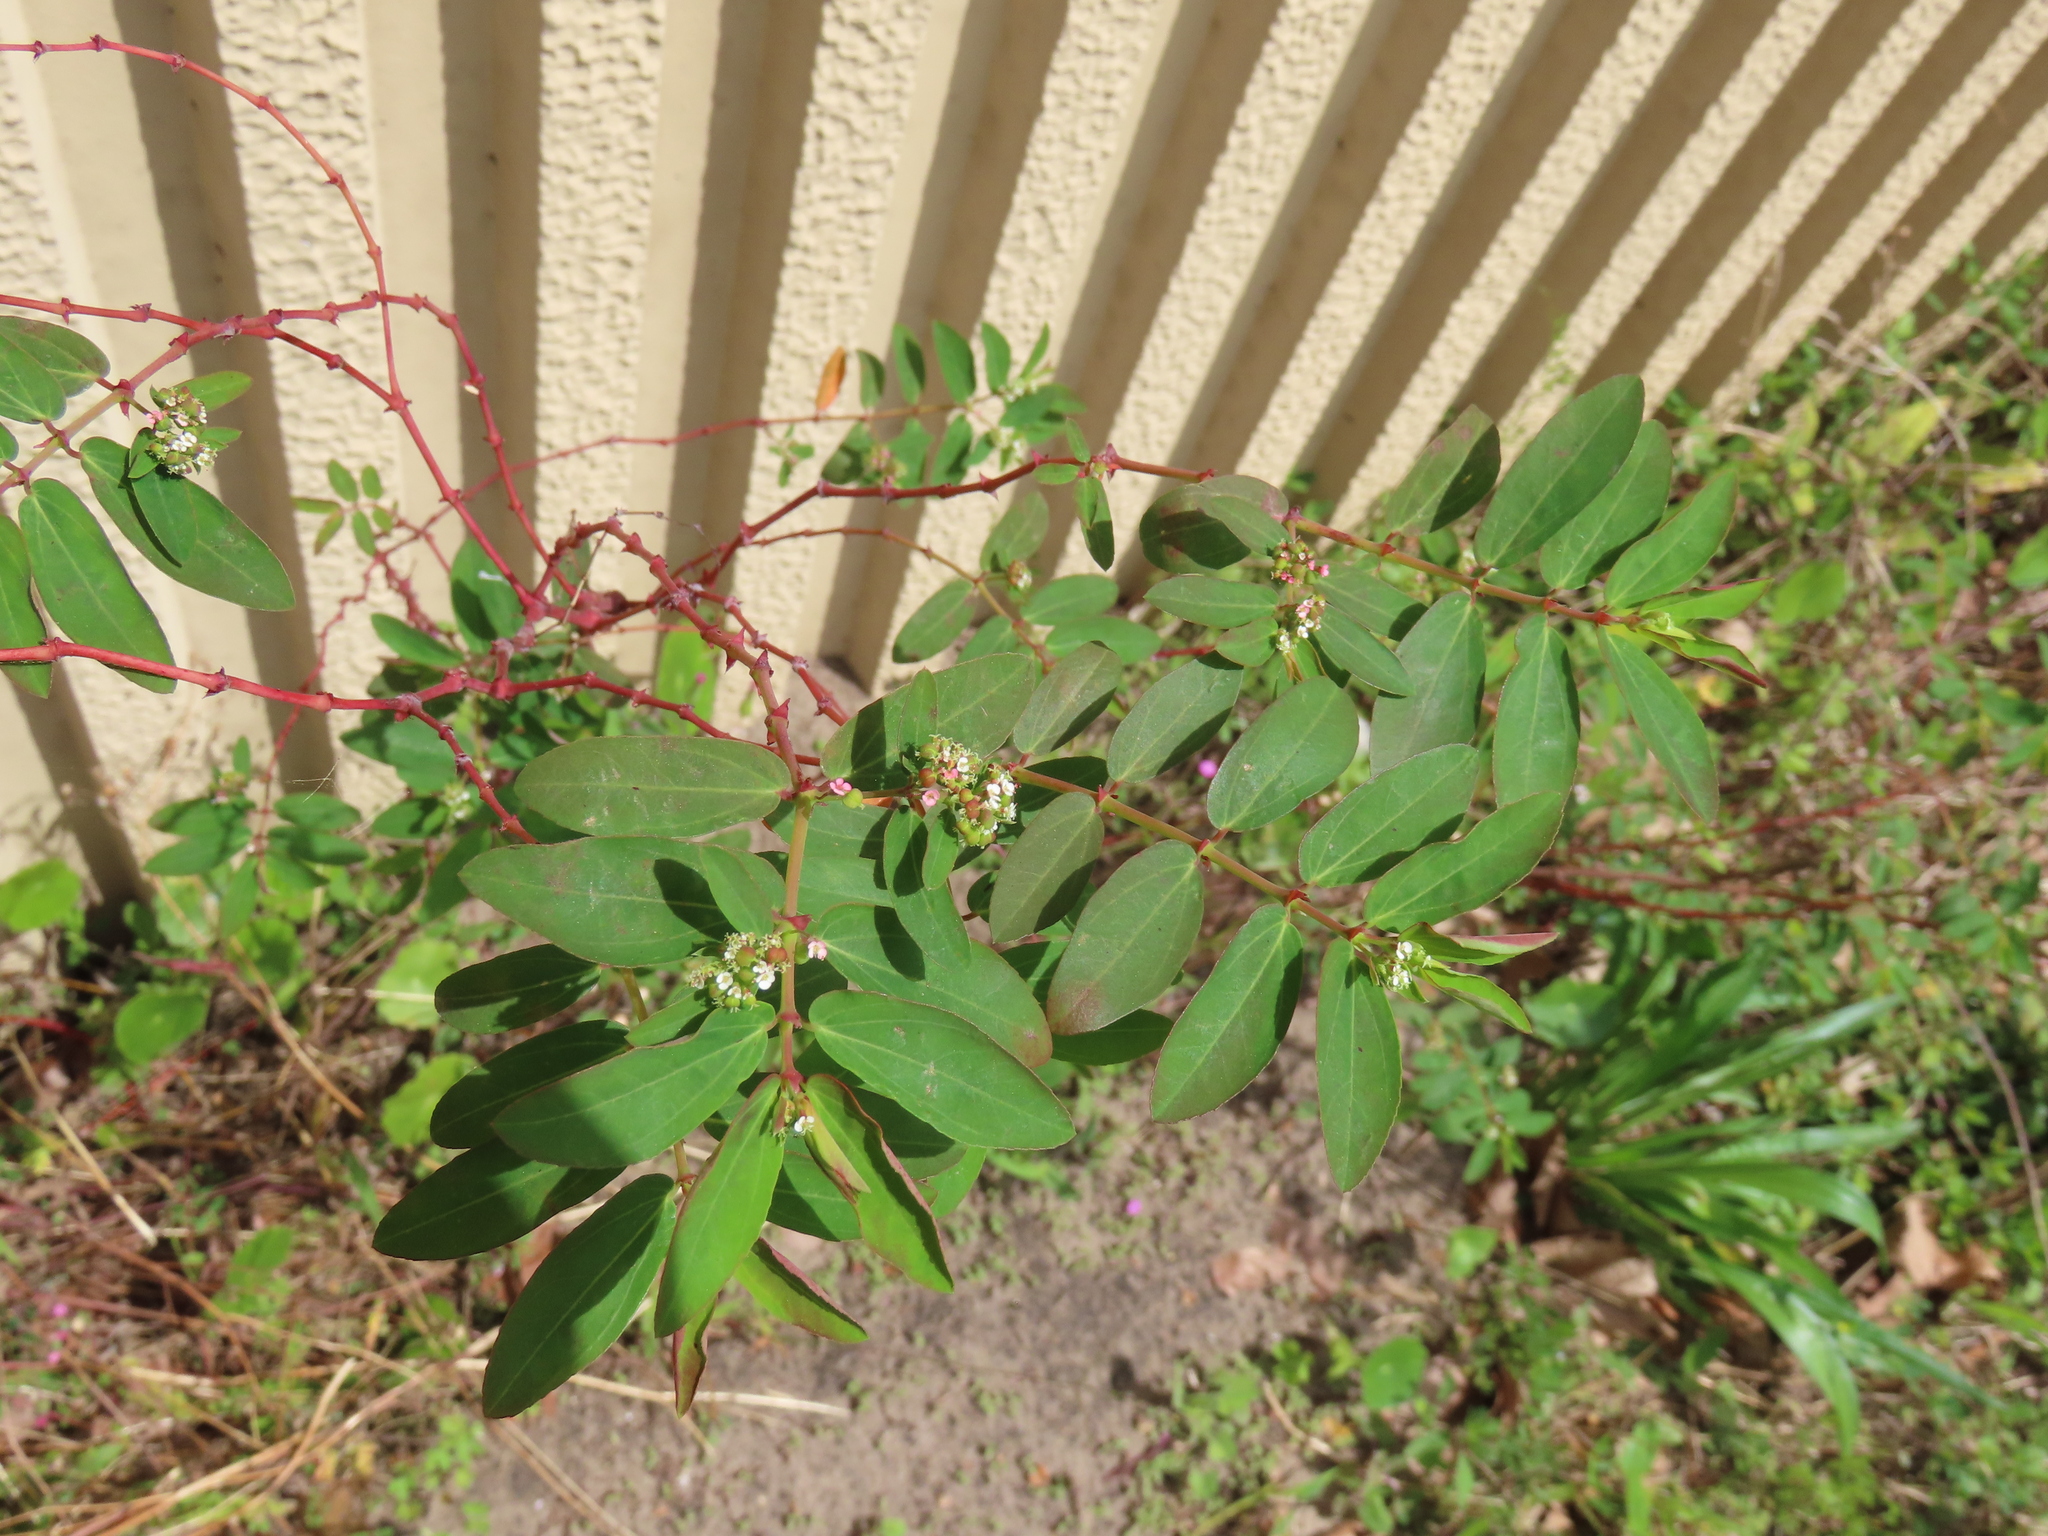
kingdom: Plantae
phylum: Tracheophyta
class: Magnoliopsida
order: Malpighiales
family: Euphorbiaceae
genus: Euphorbia
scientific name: Euphorbia hypericifolia
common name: Graceful sandmat
